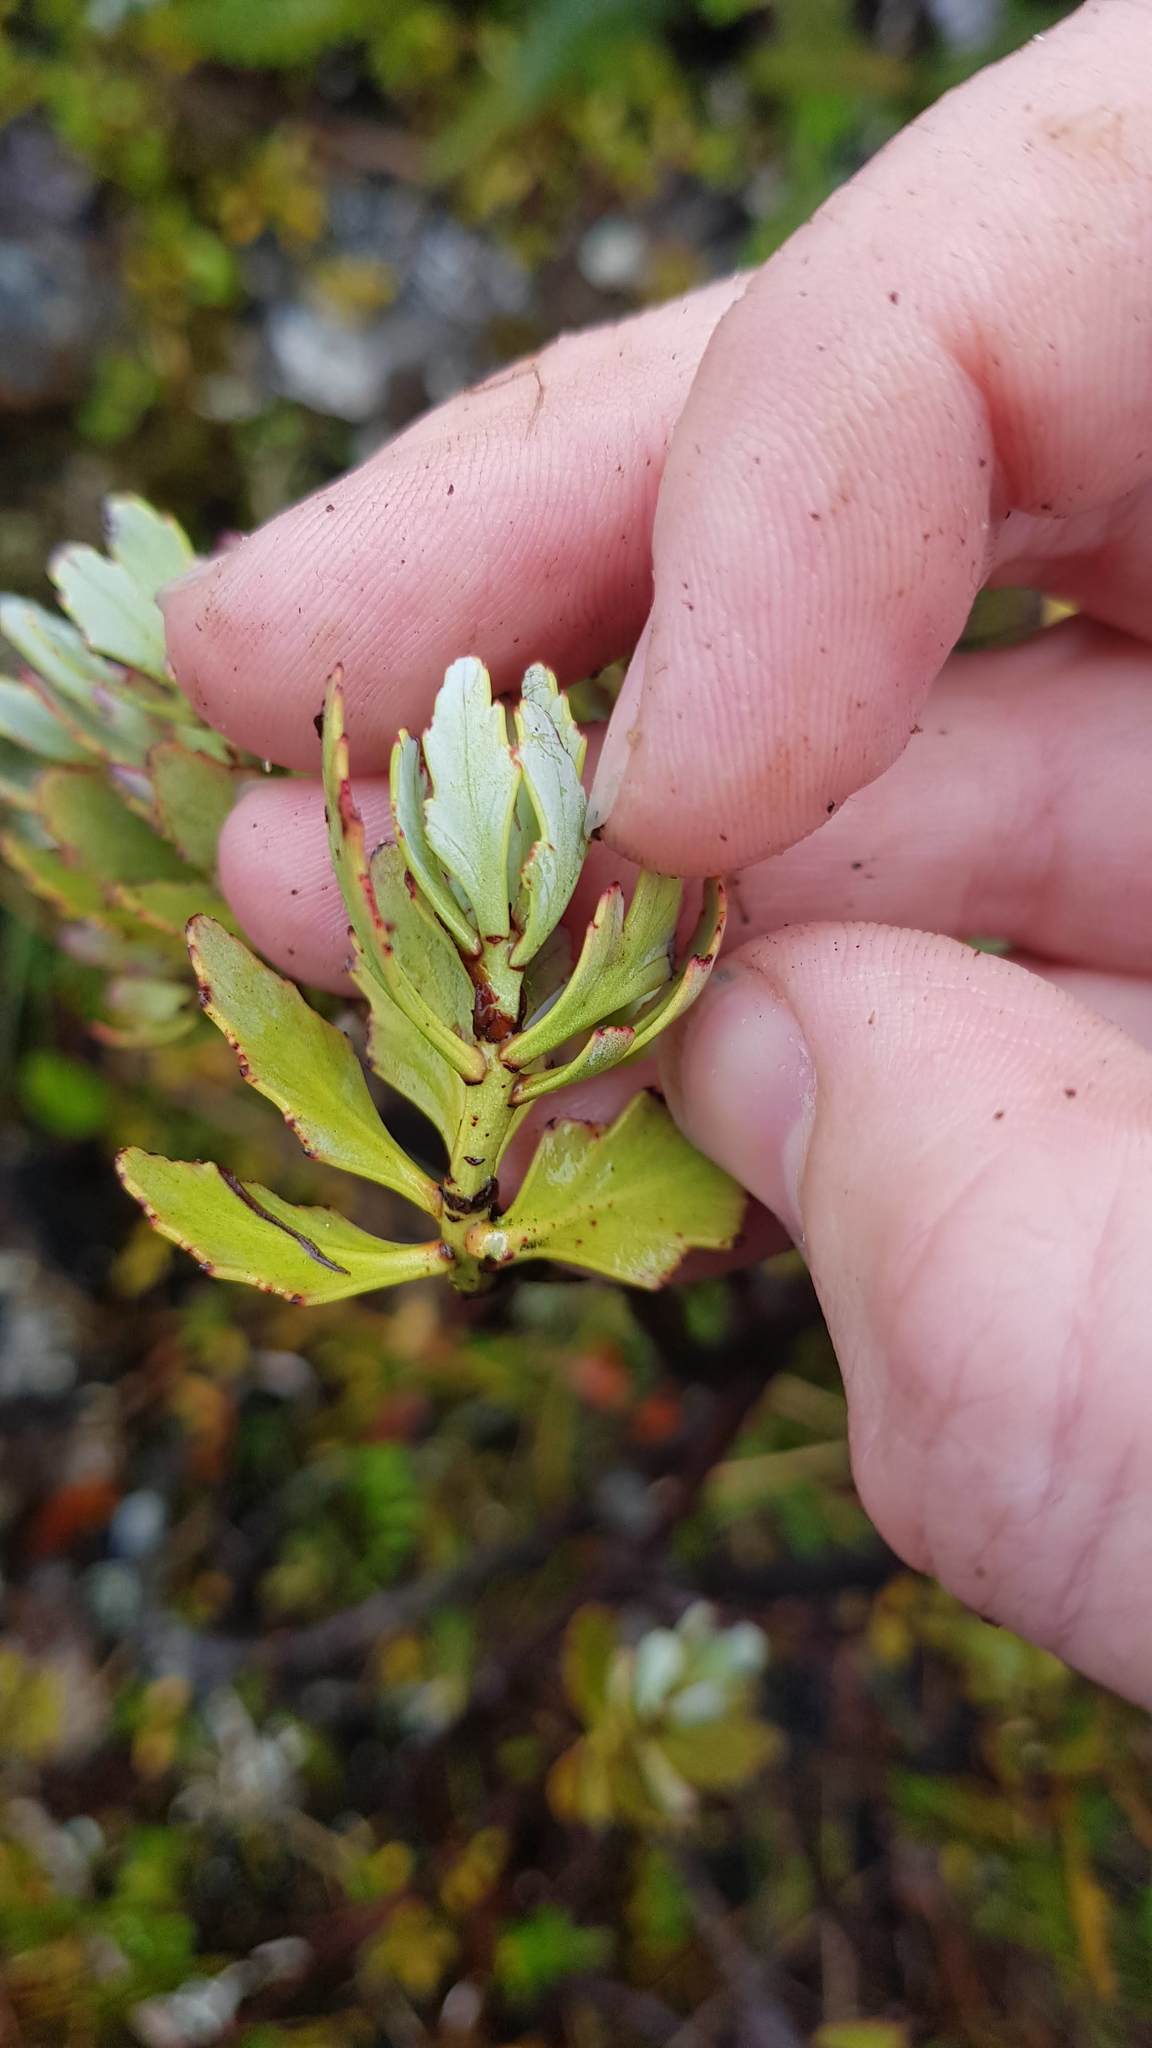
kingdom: Plantae
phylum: Tracheophyta
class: Pinopsida
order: Pinales
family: Phyllocladaceae
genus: Phyllocladus
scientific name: Phyllocladus trichomanoides
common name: Celery pine
